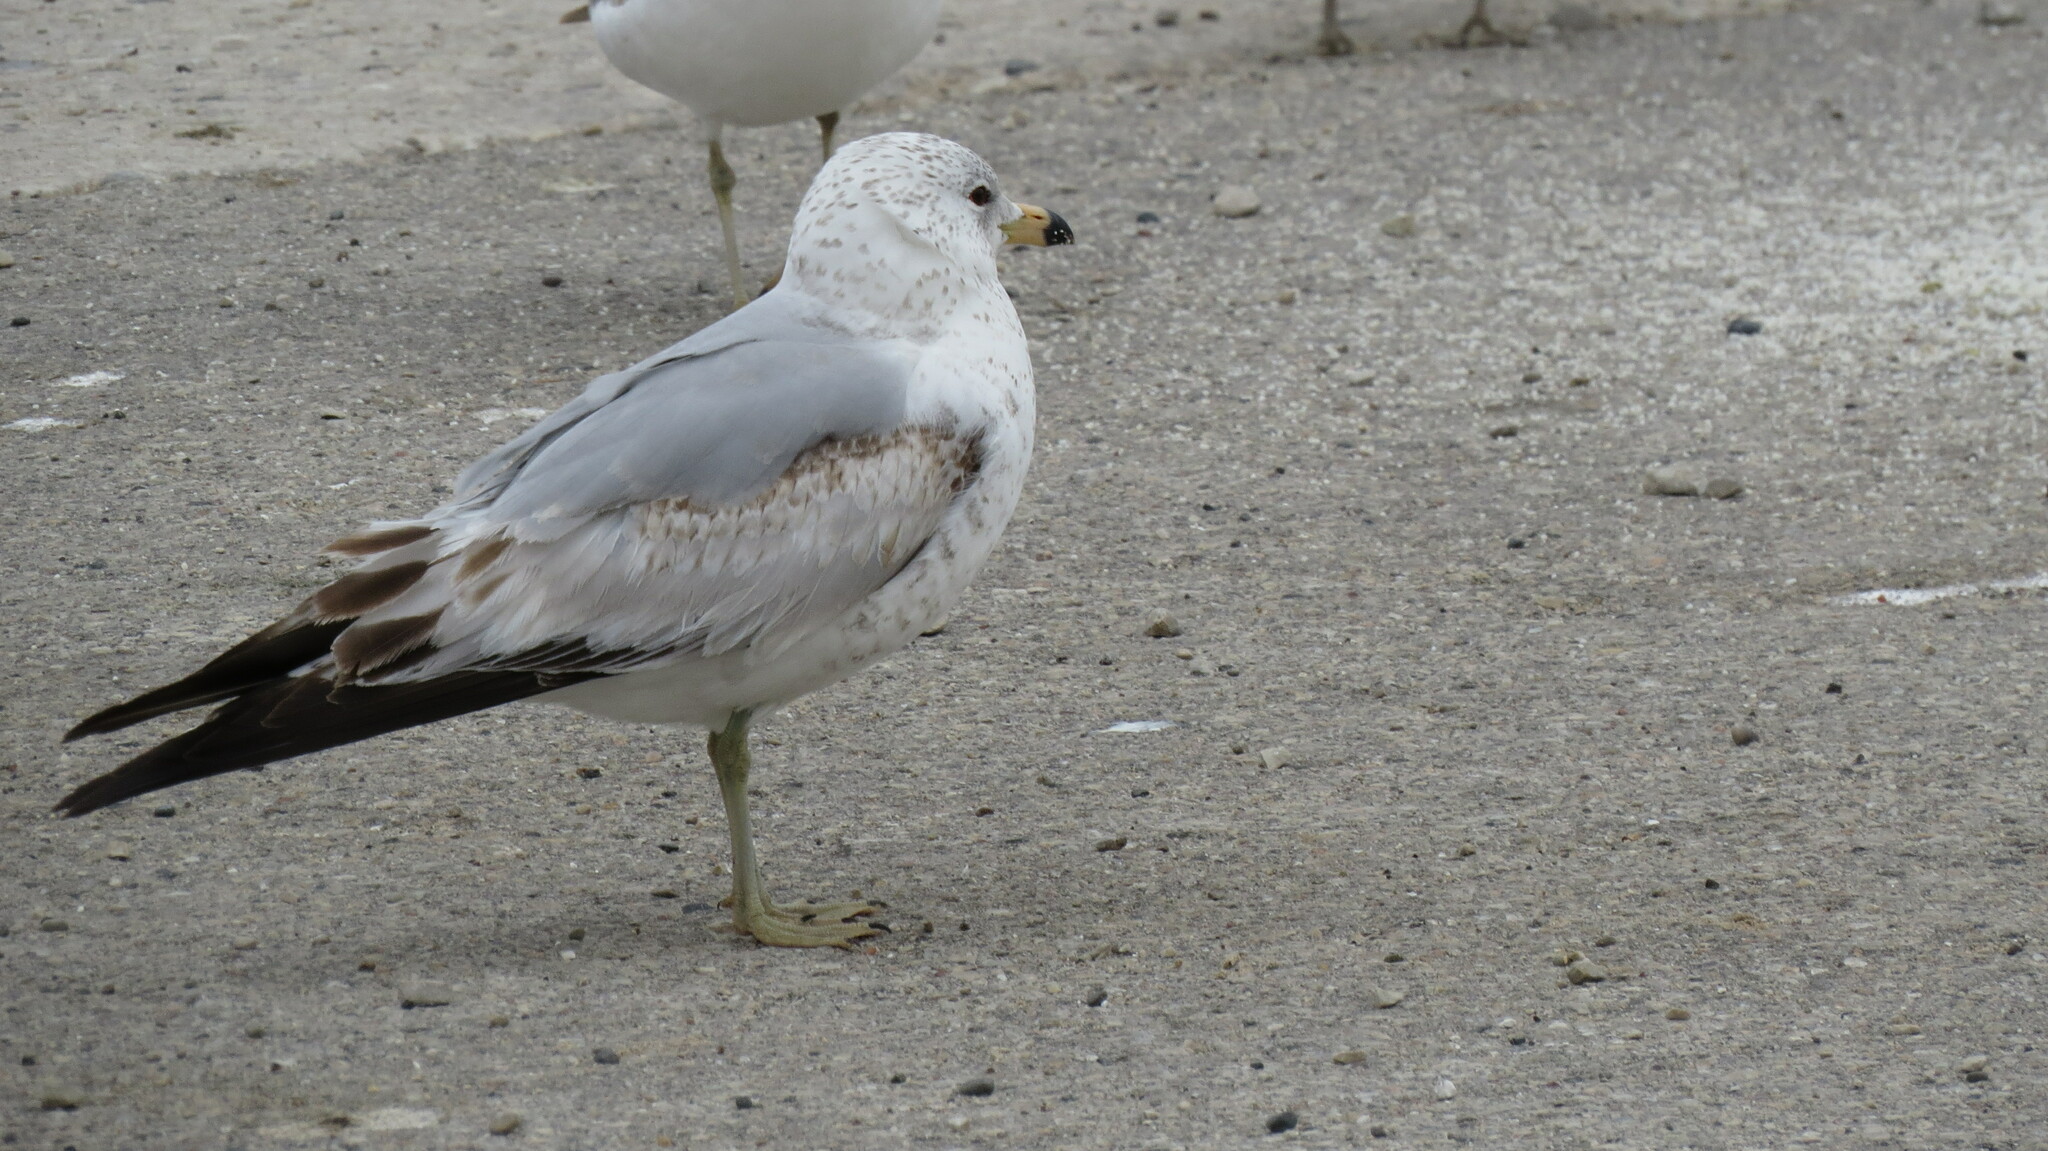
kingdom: Animalia
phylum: Chordata
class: Aves
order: Charadriiformes
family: Laridae
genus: Larus
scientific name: Larus delawarensis
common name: Ring-billed gull
